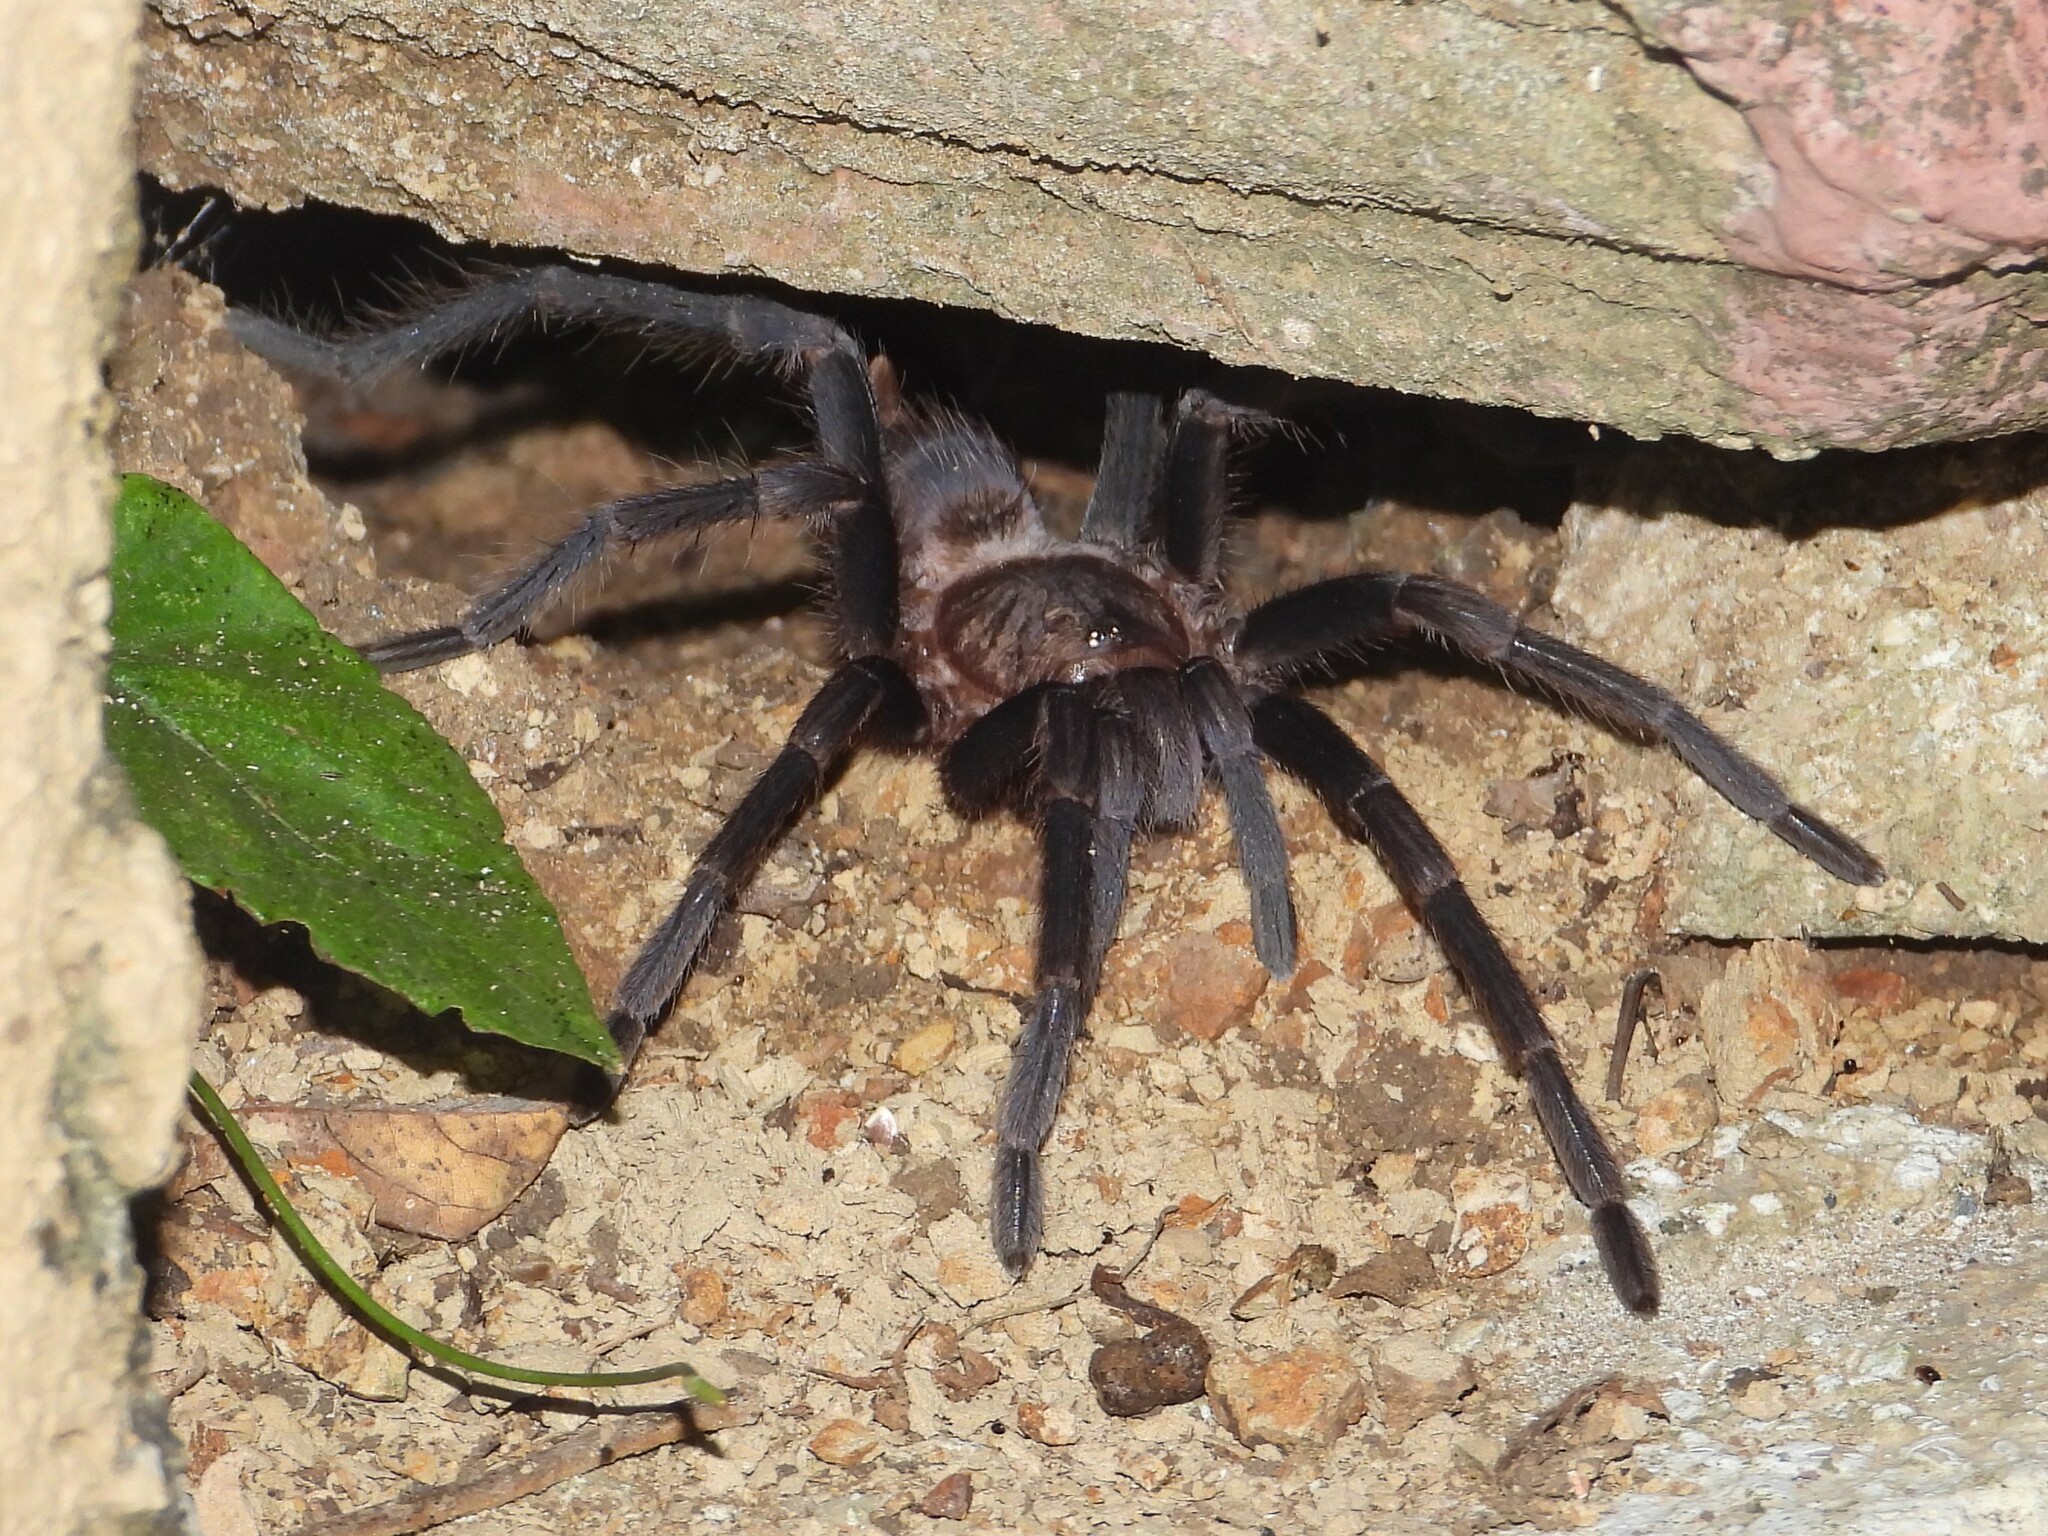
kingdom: Animalia
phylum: Arthropoda
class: Arachnida
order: Araneae
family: Theraphosidae
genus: Aphonopelma
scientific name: Aphonopelma crinirufum
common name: Tarantula spiders
